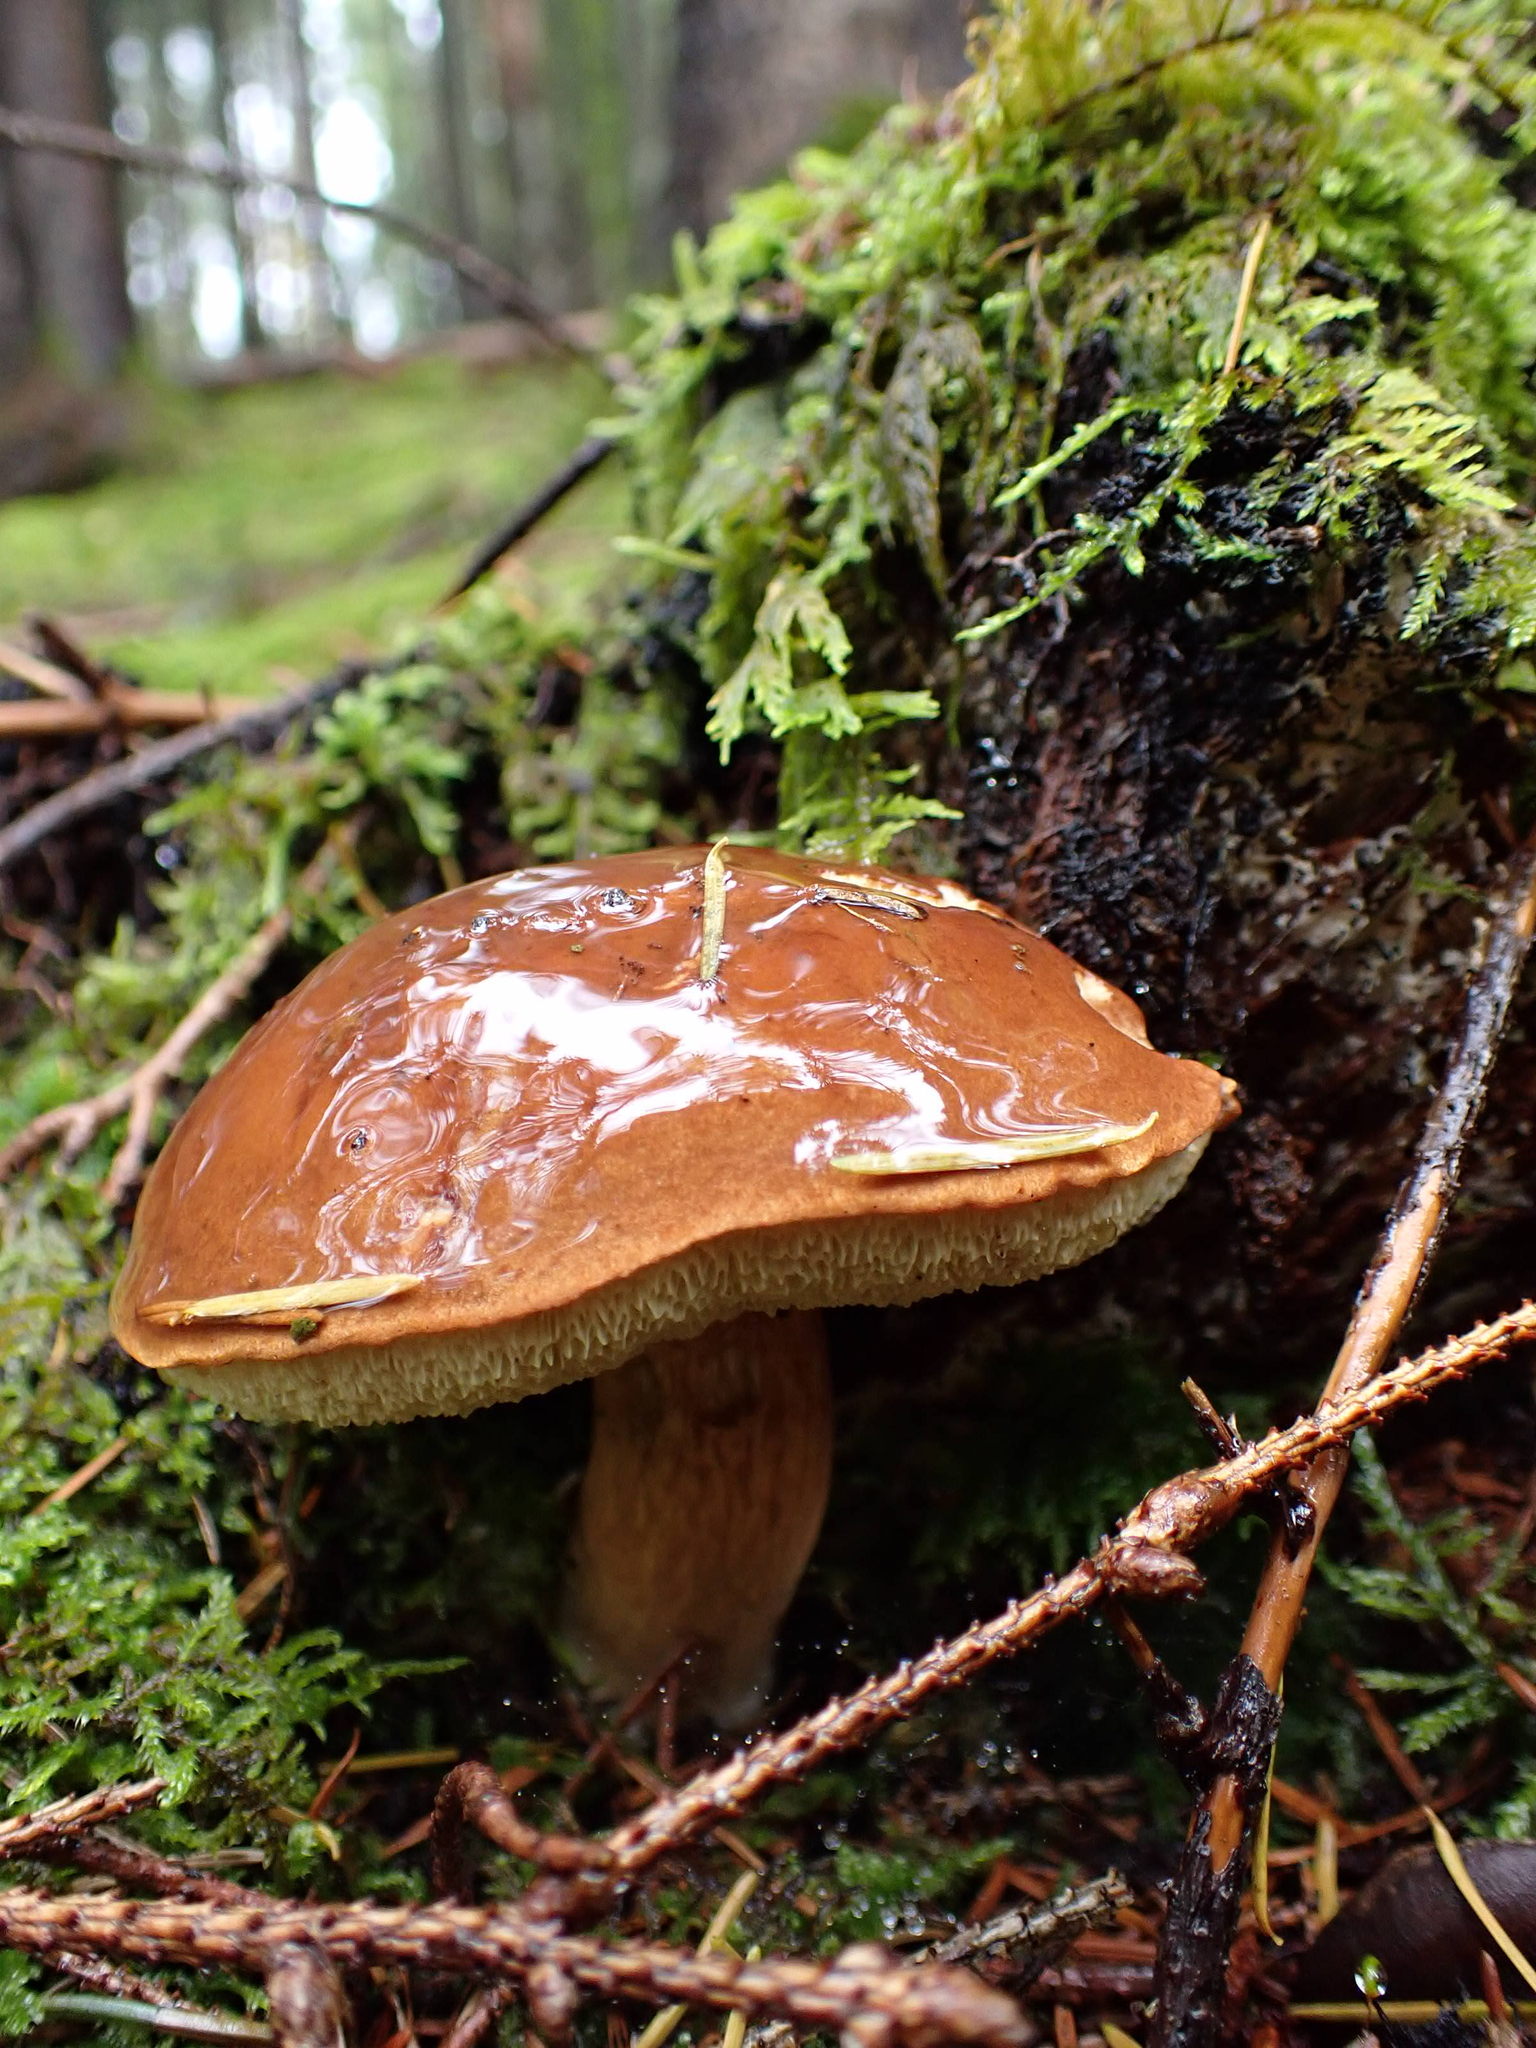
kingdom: Fungi
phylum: Basidiomycota
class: Agaricomycetes
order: Boletales
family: Boletaceae
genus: Imleria
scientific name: Imleria badia
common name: Bay bolete
